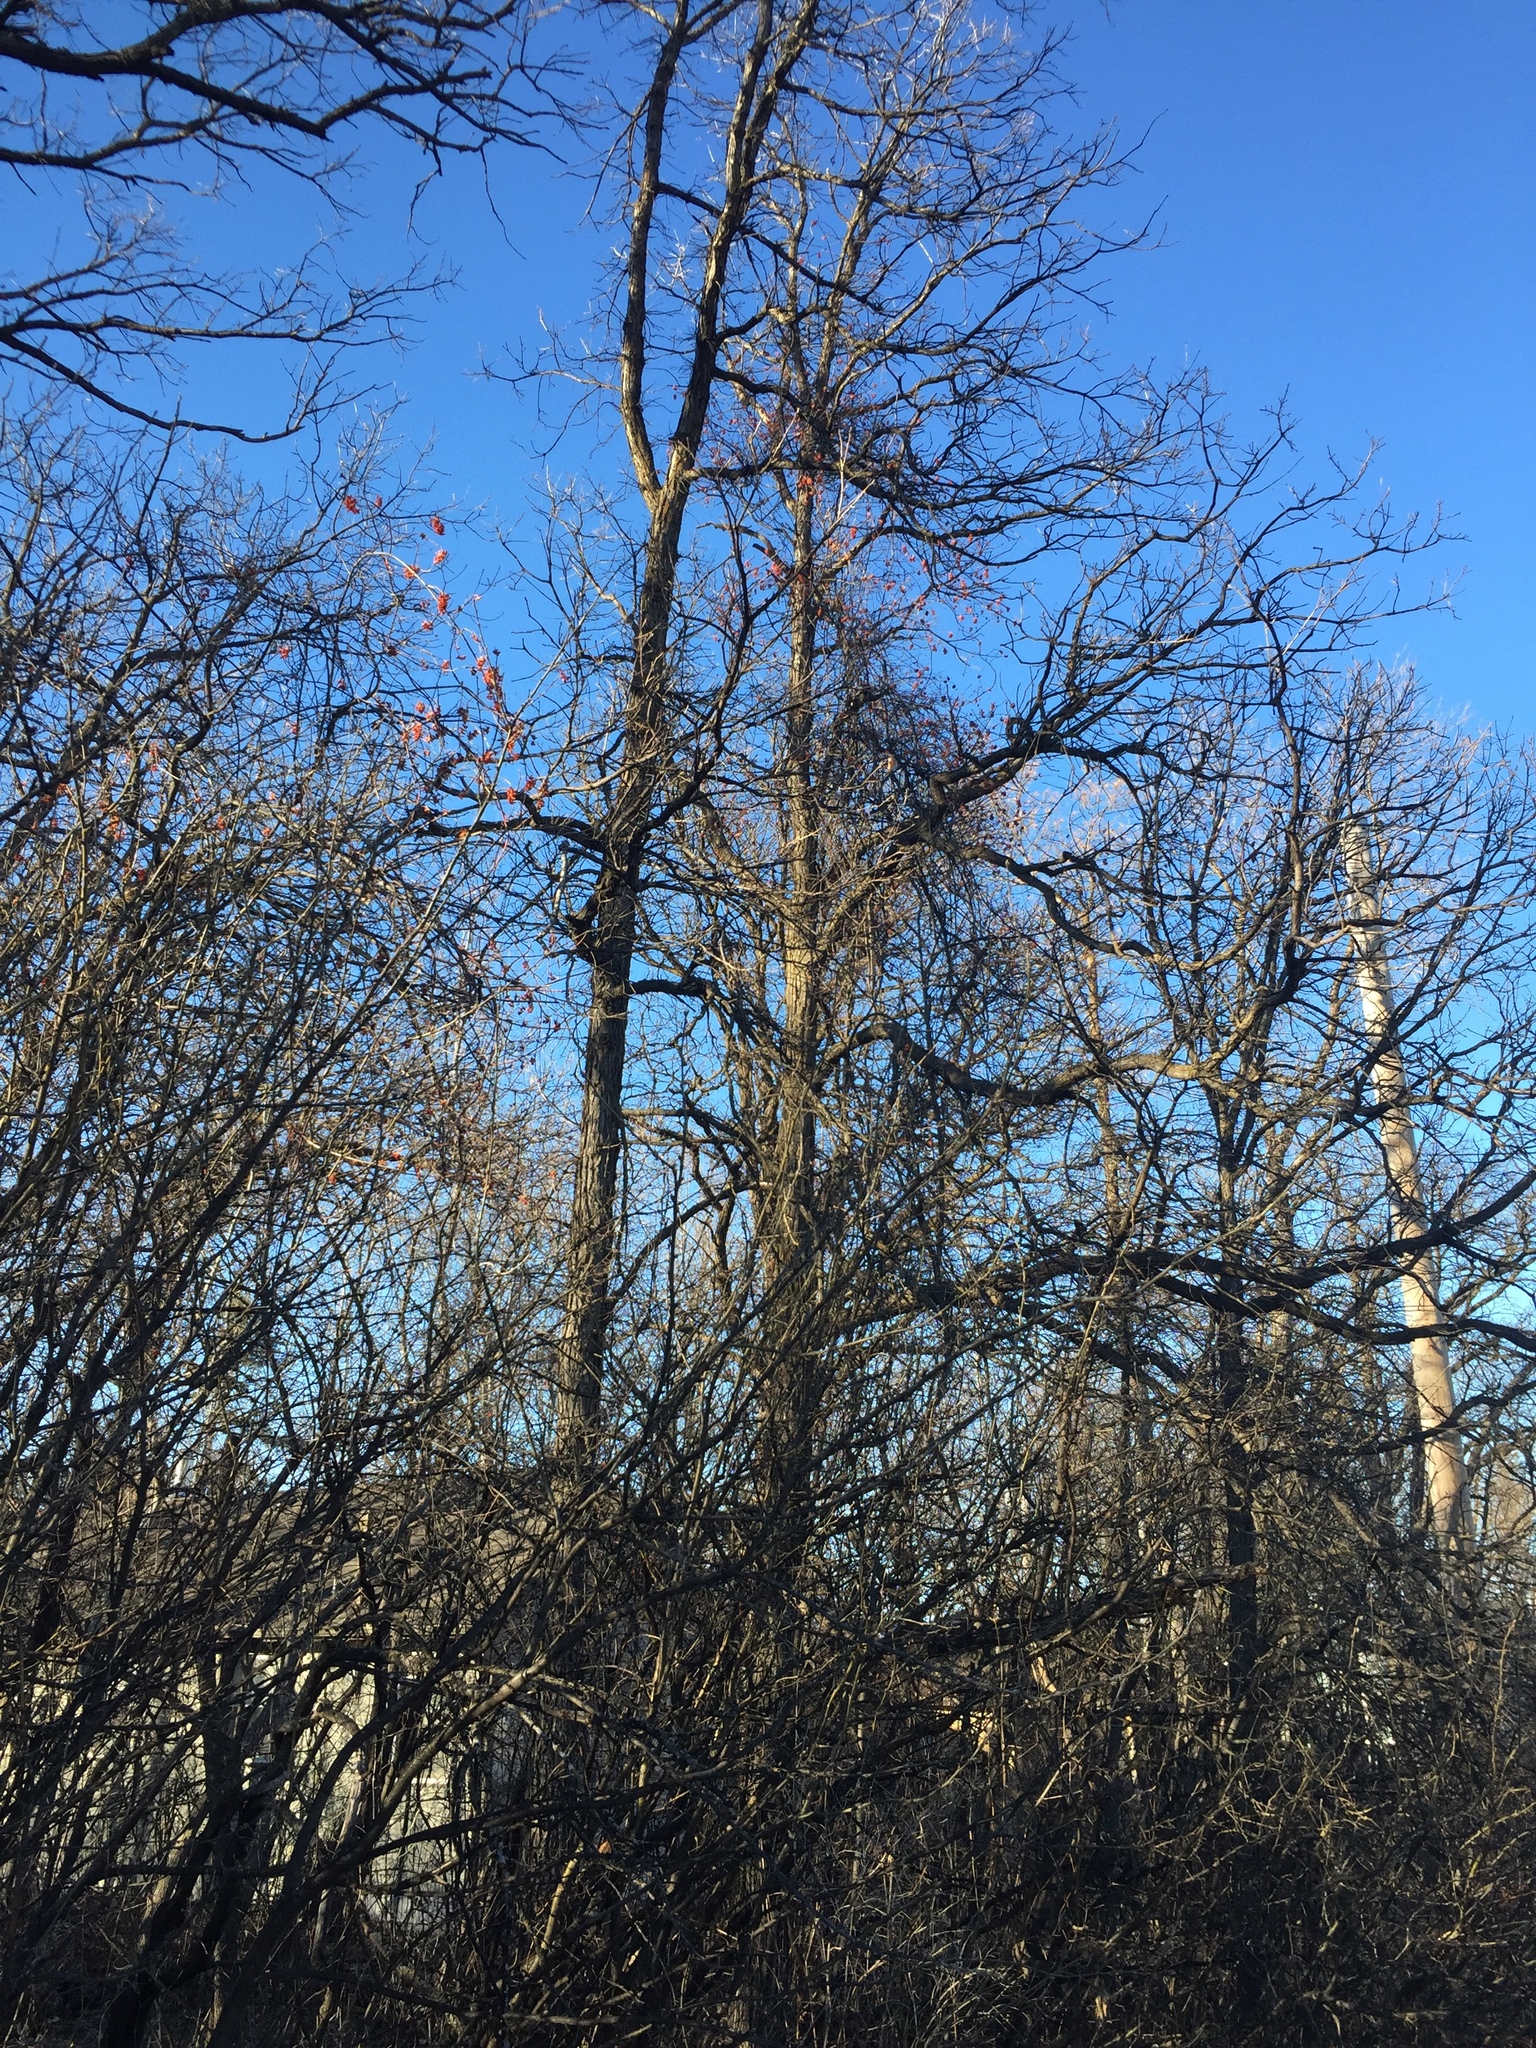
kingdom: Plantae
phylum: Tracheophyta
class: Magnoliopsida
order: Celastrales
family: Celastraceae
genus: Celastrus
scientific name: Celastrus scandens
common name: American bittersweet
